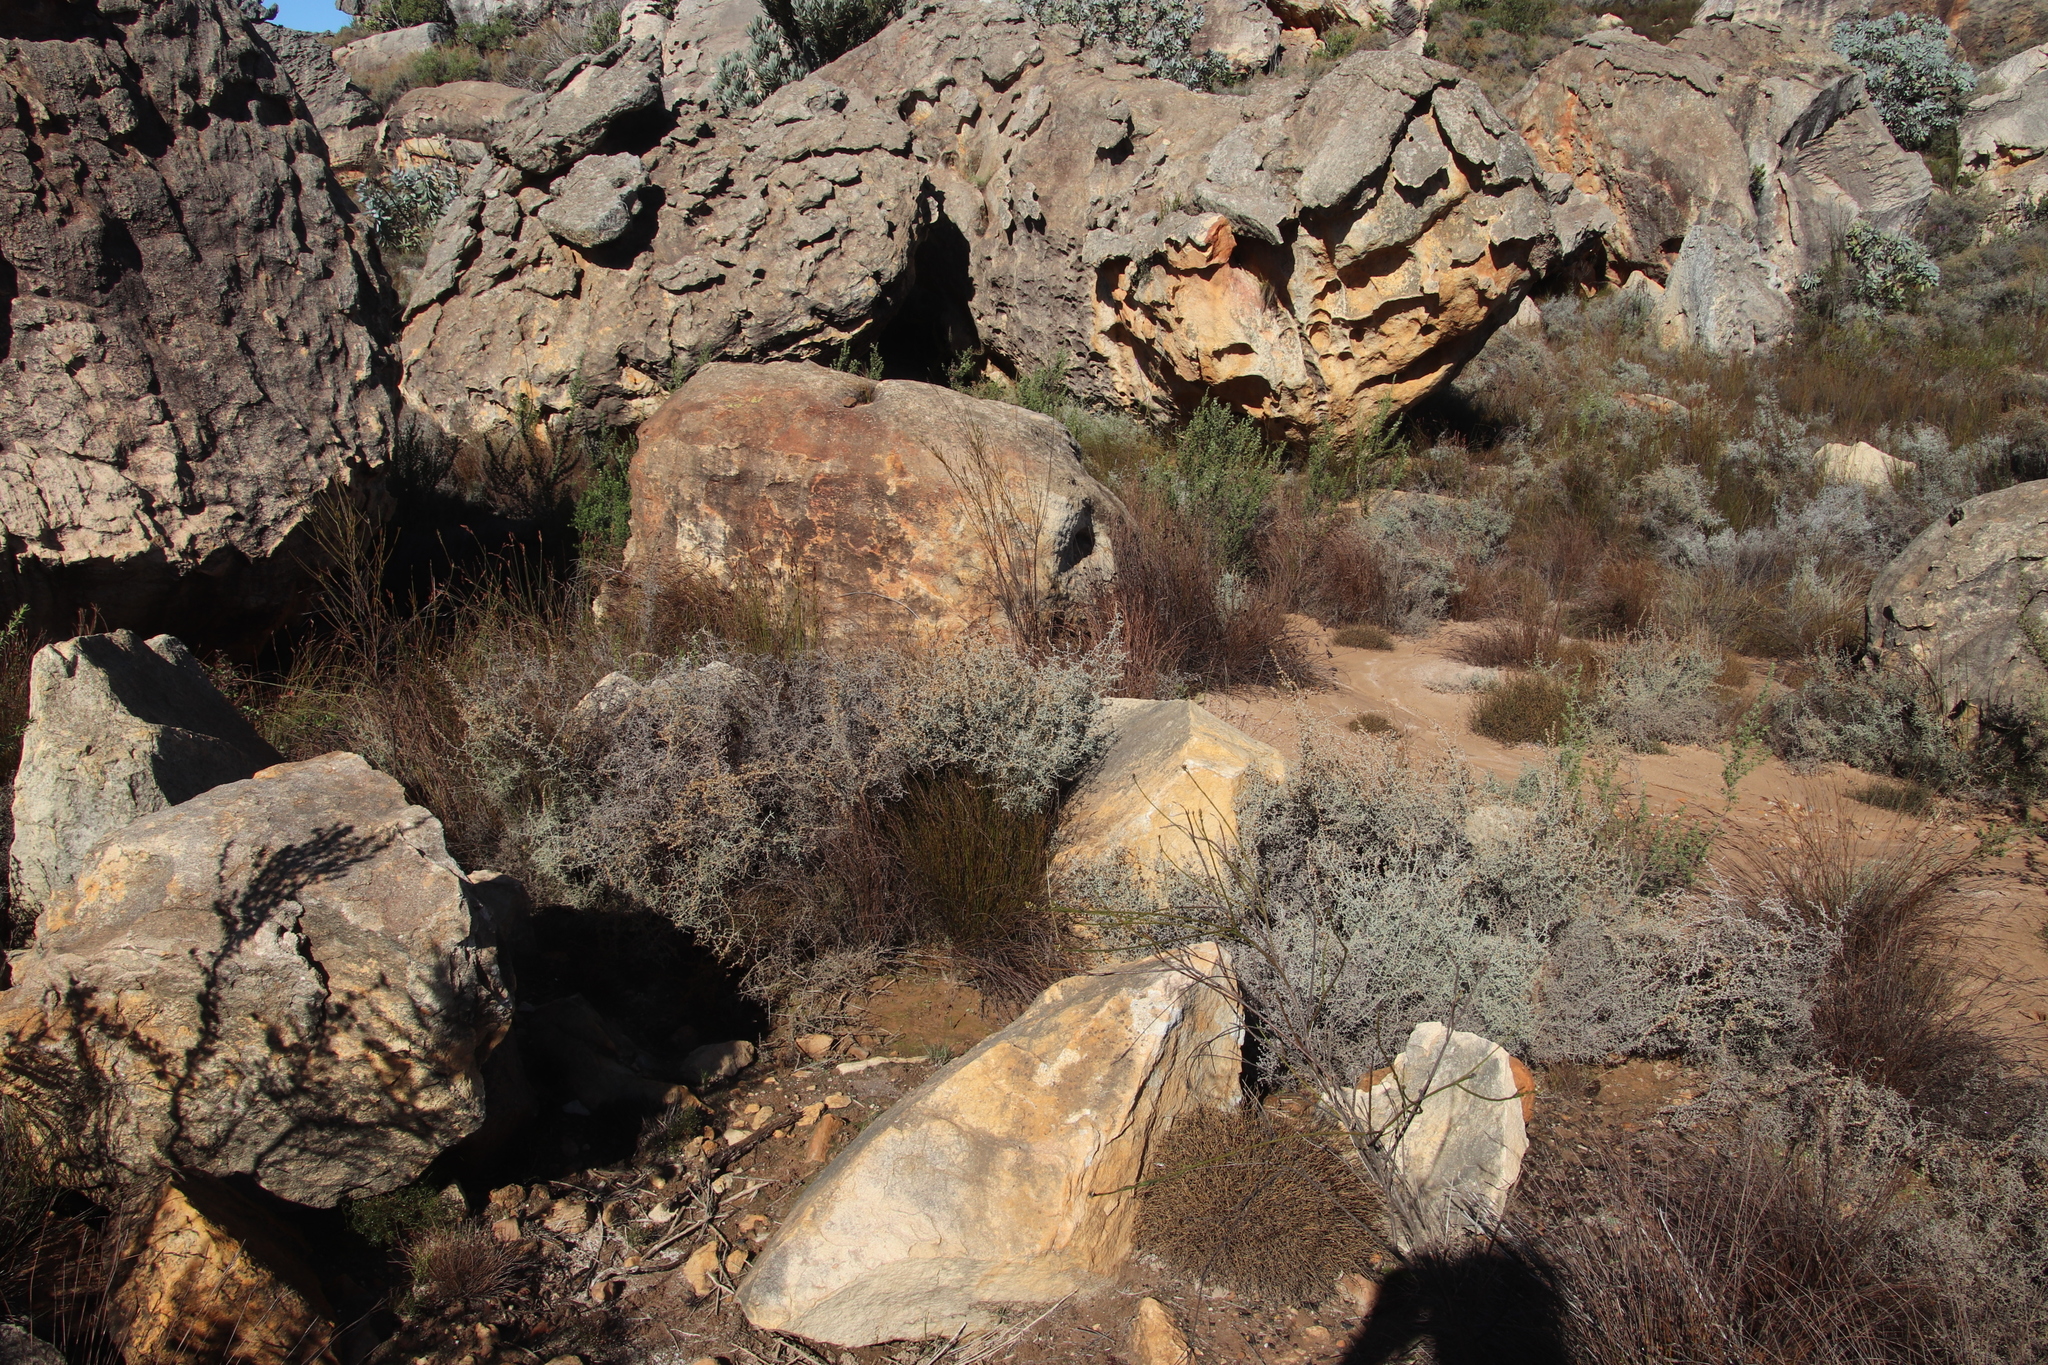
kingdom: Plantae
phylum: Tracheophyta
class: Magnoliopsida
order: Asterales
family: Asteraceae
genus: Seriphium
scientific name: Seriphium plumosum
